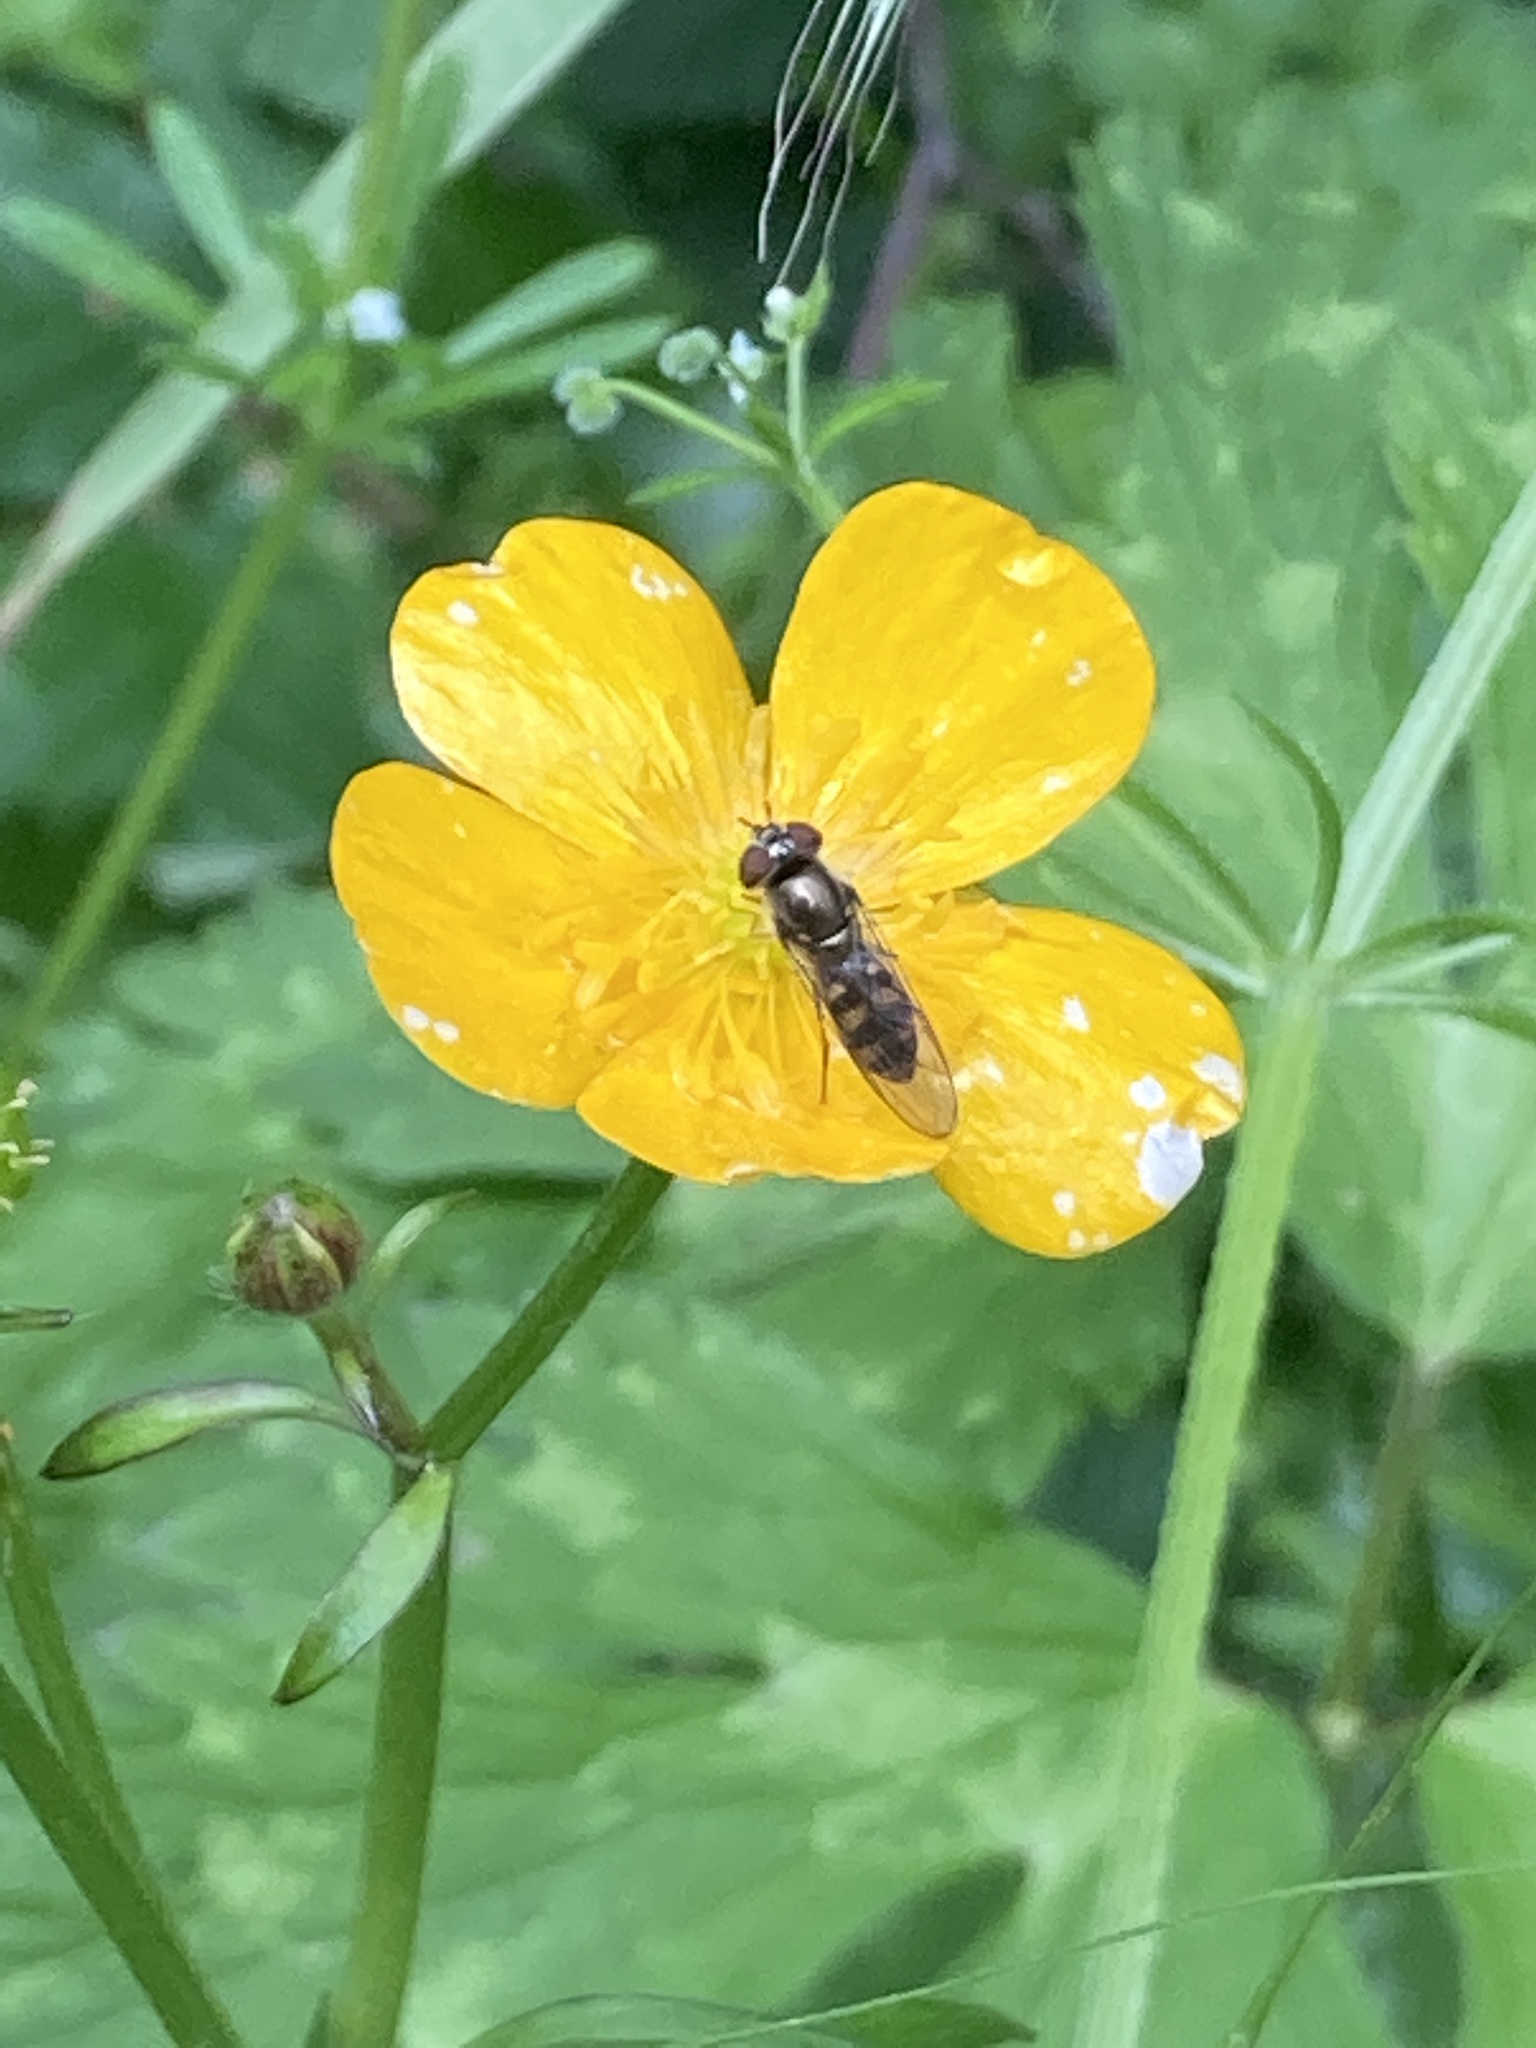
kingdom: Animalia
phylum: Arthropoda
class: Insecta
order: Diptera
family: Syrphidae
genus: Platycheirus
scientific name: Platycheirus trichopus
